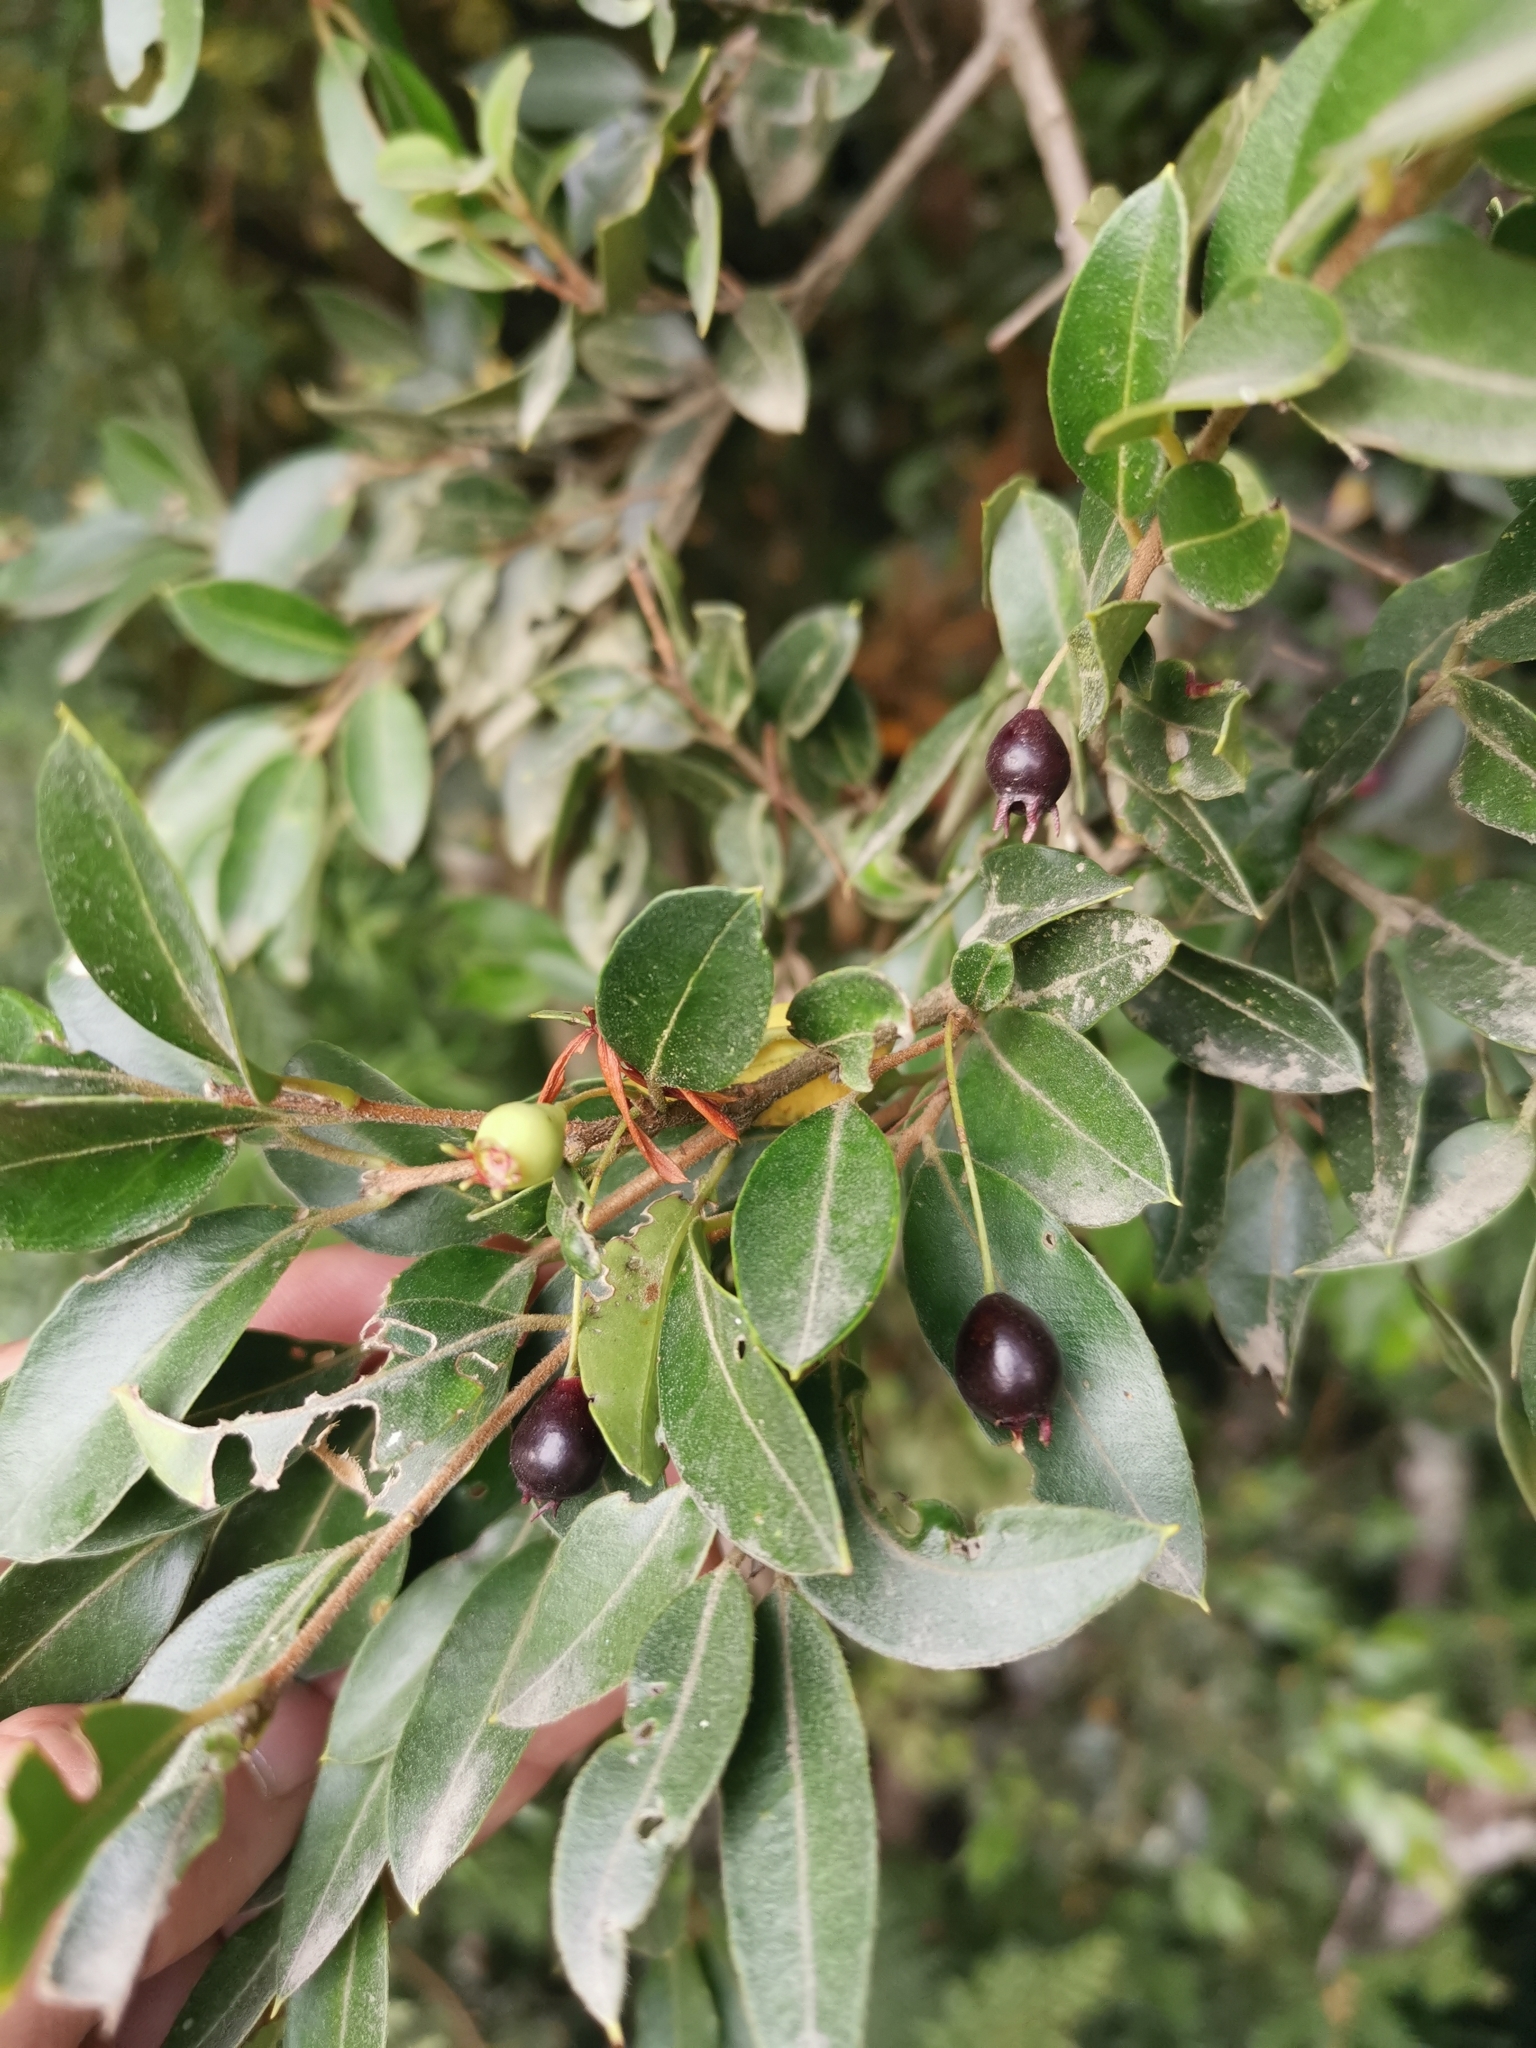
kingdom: Plantae
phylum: Tracheophyta
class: Magnoliopsida
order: Myrtales
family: Myrtaceae
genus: Amomyrtus
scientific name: Amomyrtus luma
